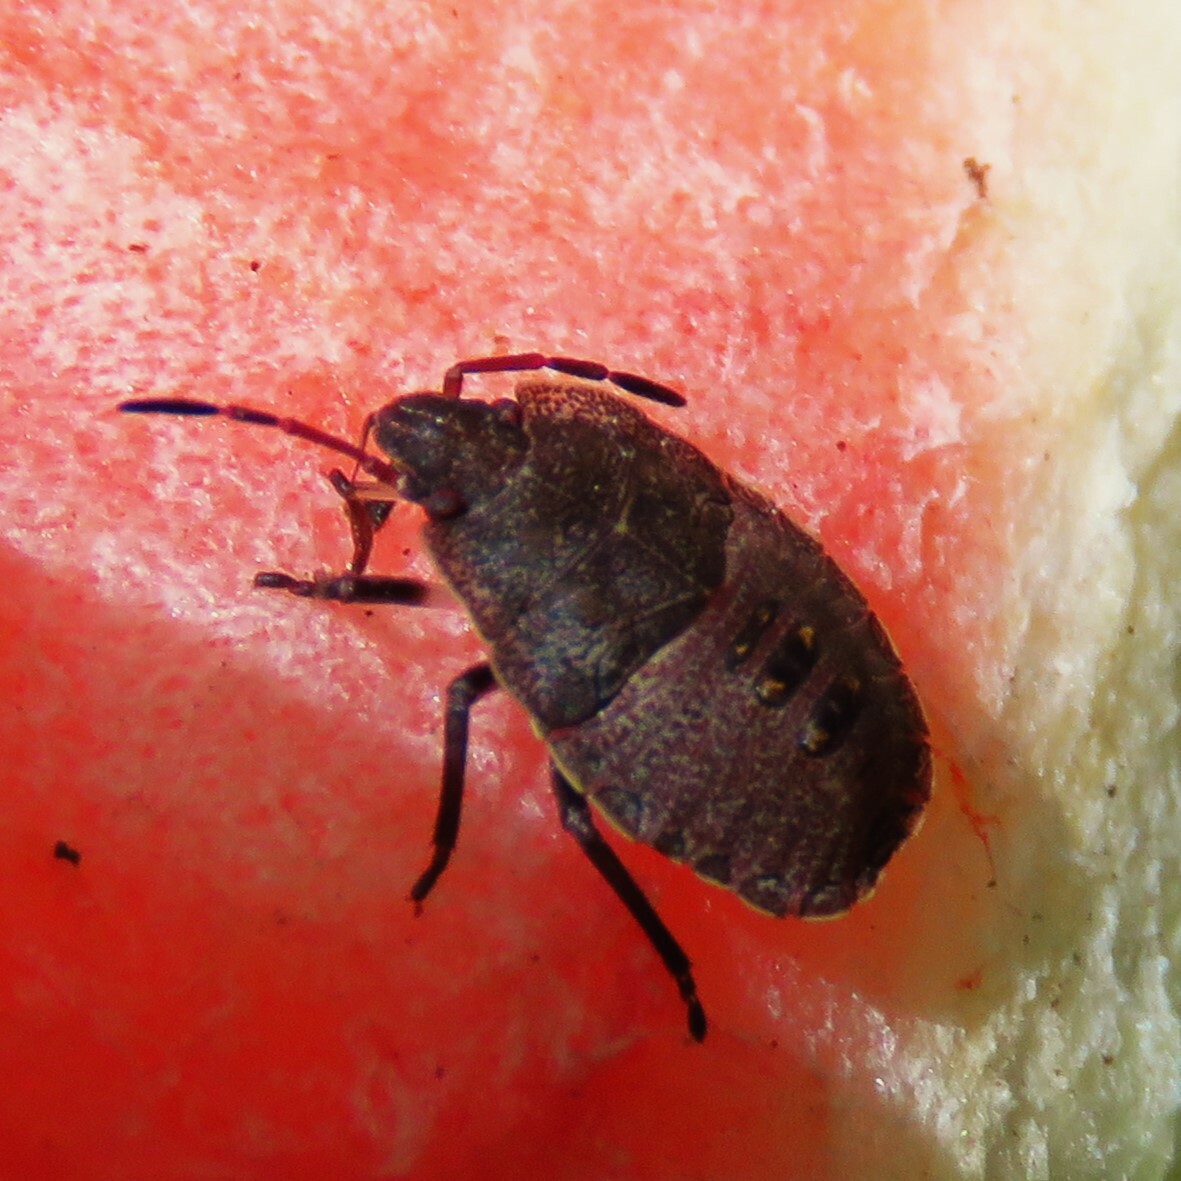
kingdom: Animalia
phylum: Arthropoda
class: Insecta
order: Hemiptera
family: Pentatomidae
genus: Menecles
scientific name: Menecles insertus
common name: Elf shoe stink bug
